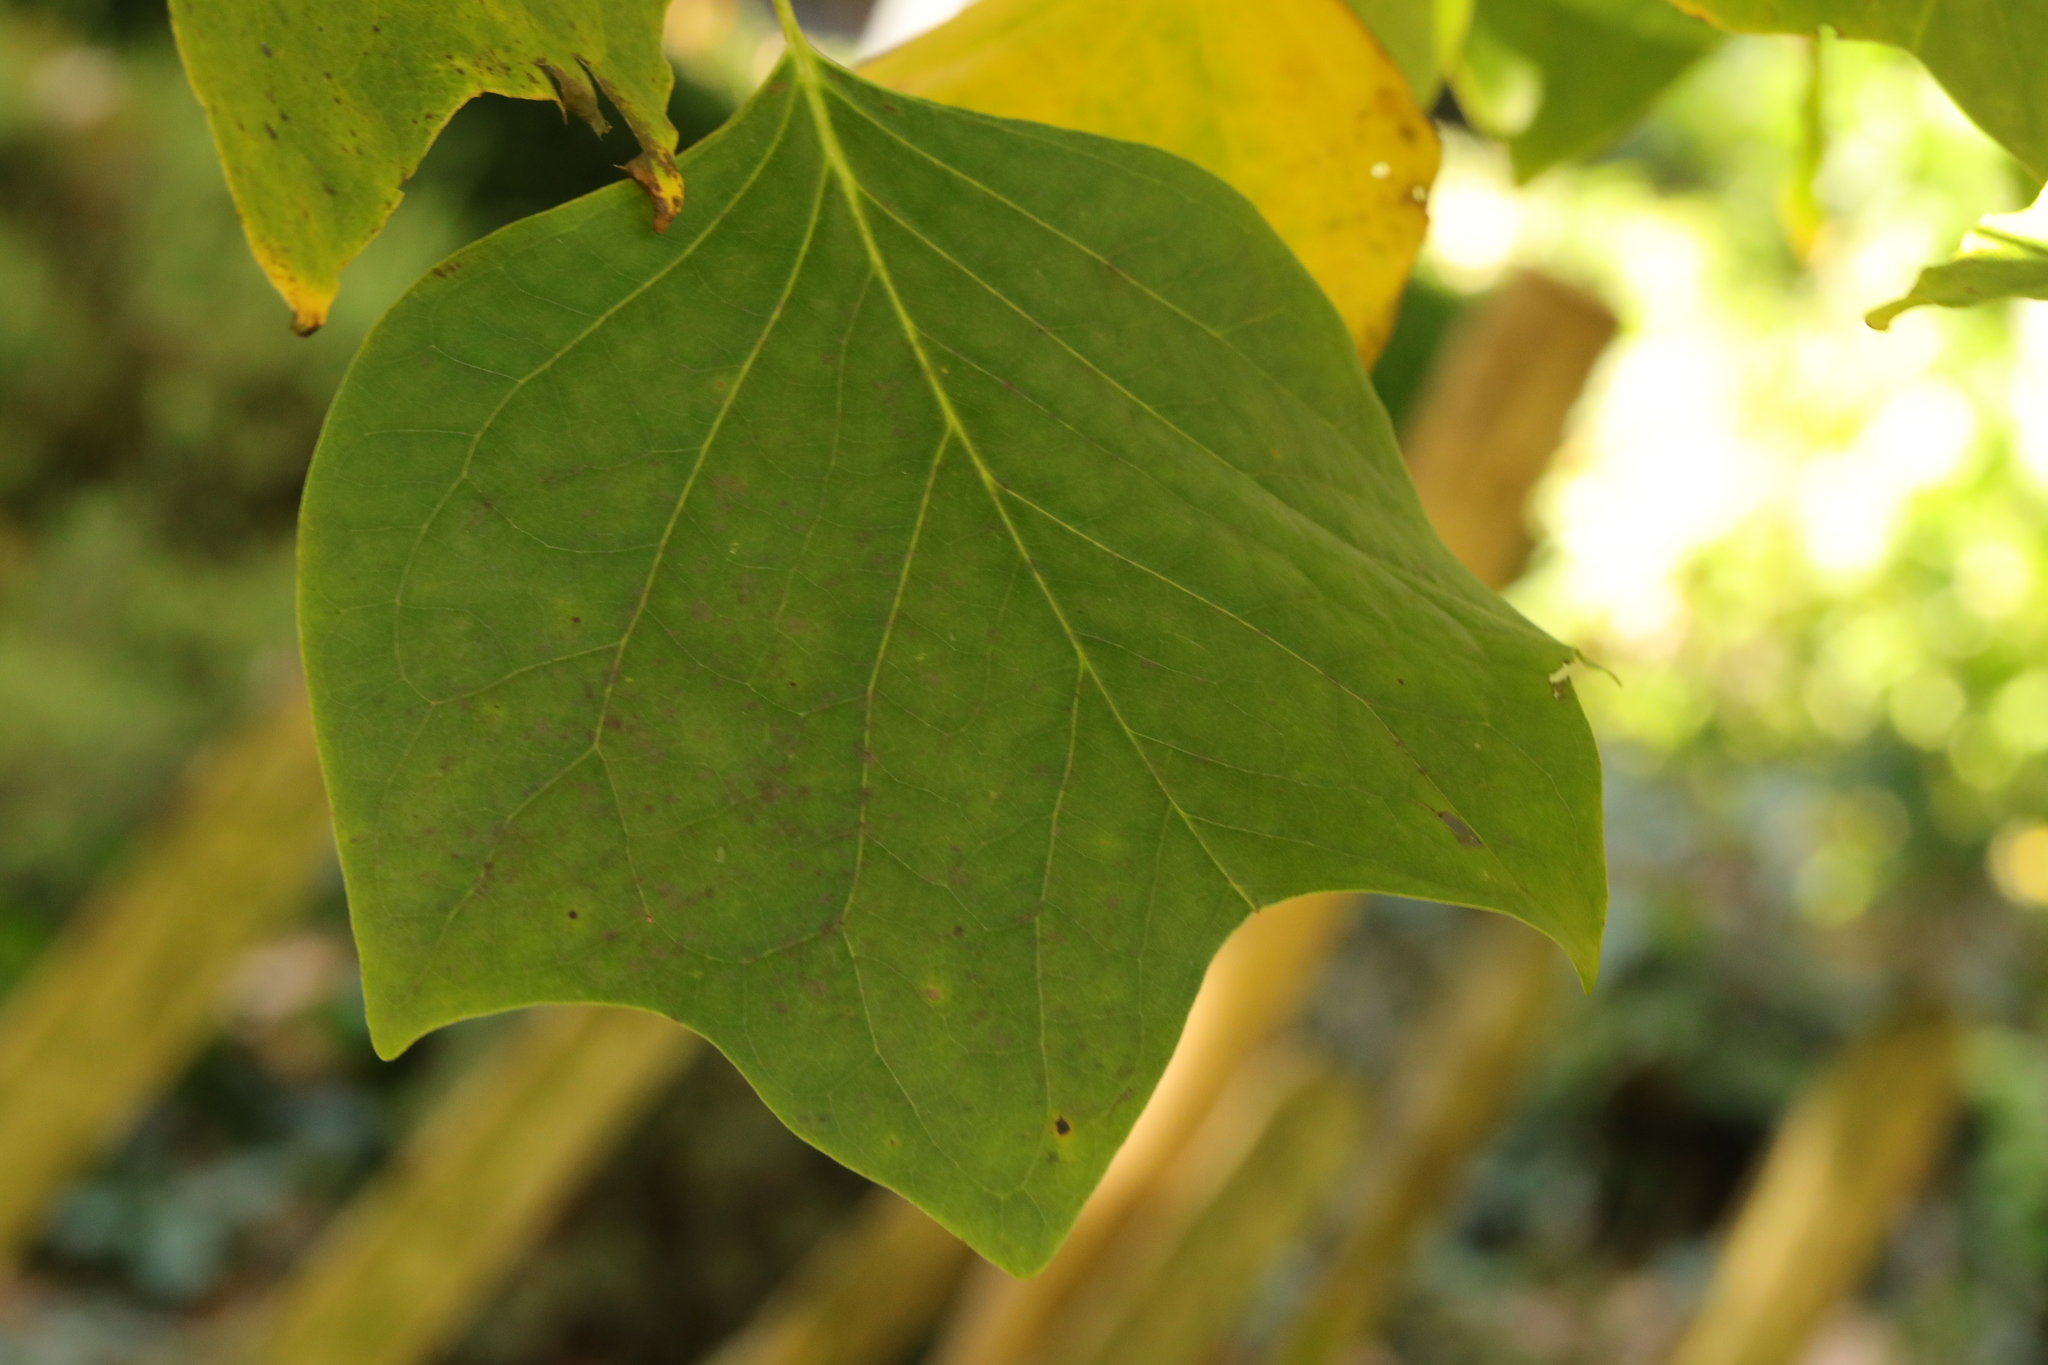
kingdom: Plantae
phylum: Tracheophyta
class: Magnoliopsida
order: Magnoliales
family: Magnoliaceae
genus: Liriodendron
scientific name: Liriodendron tulipifera
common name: Tulip tree
